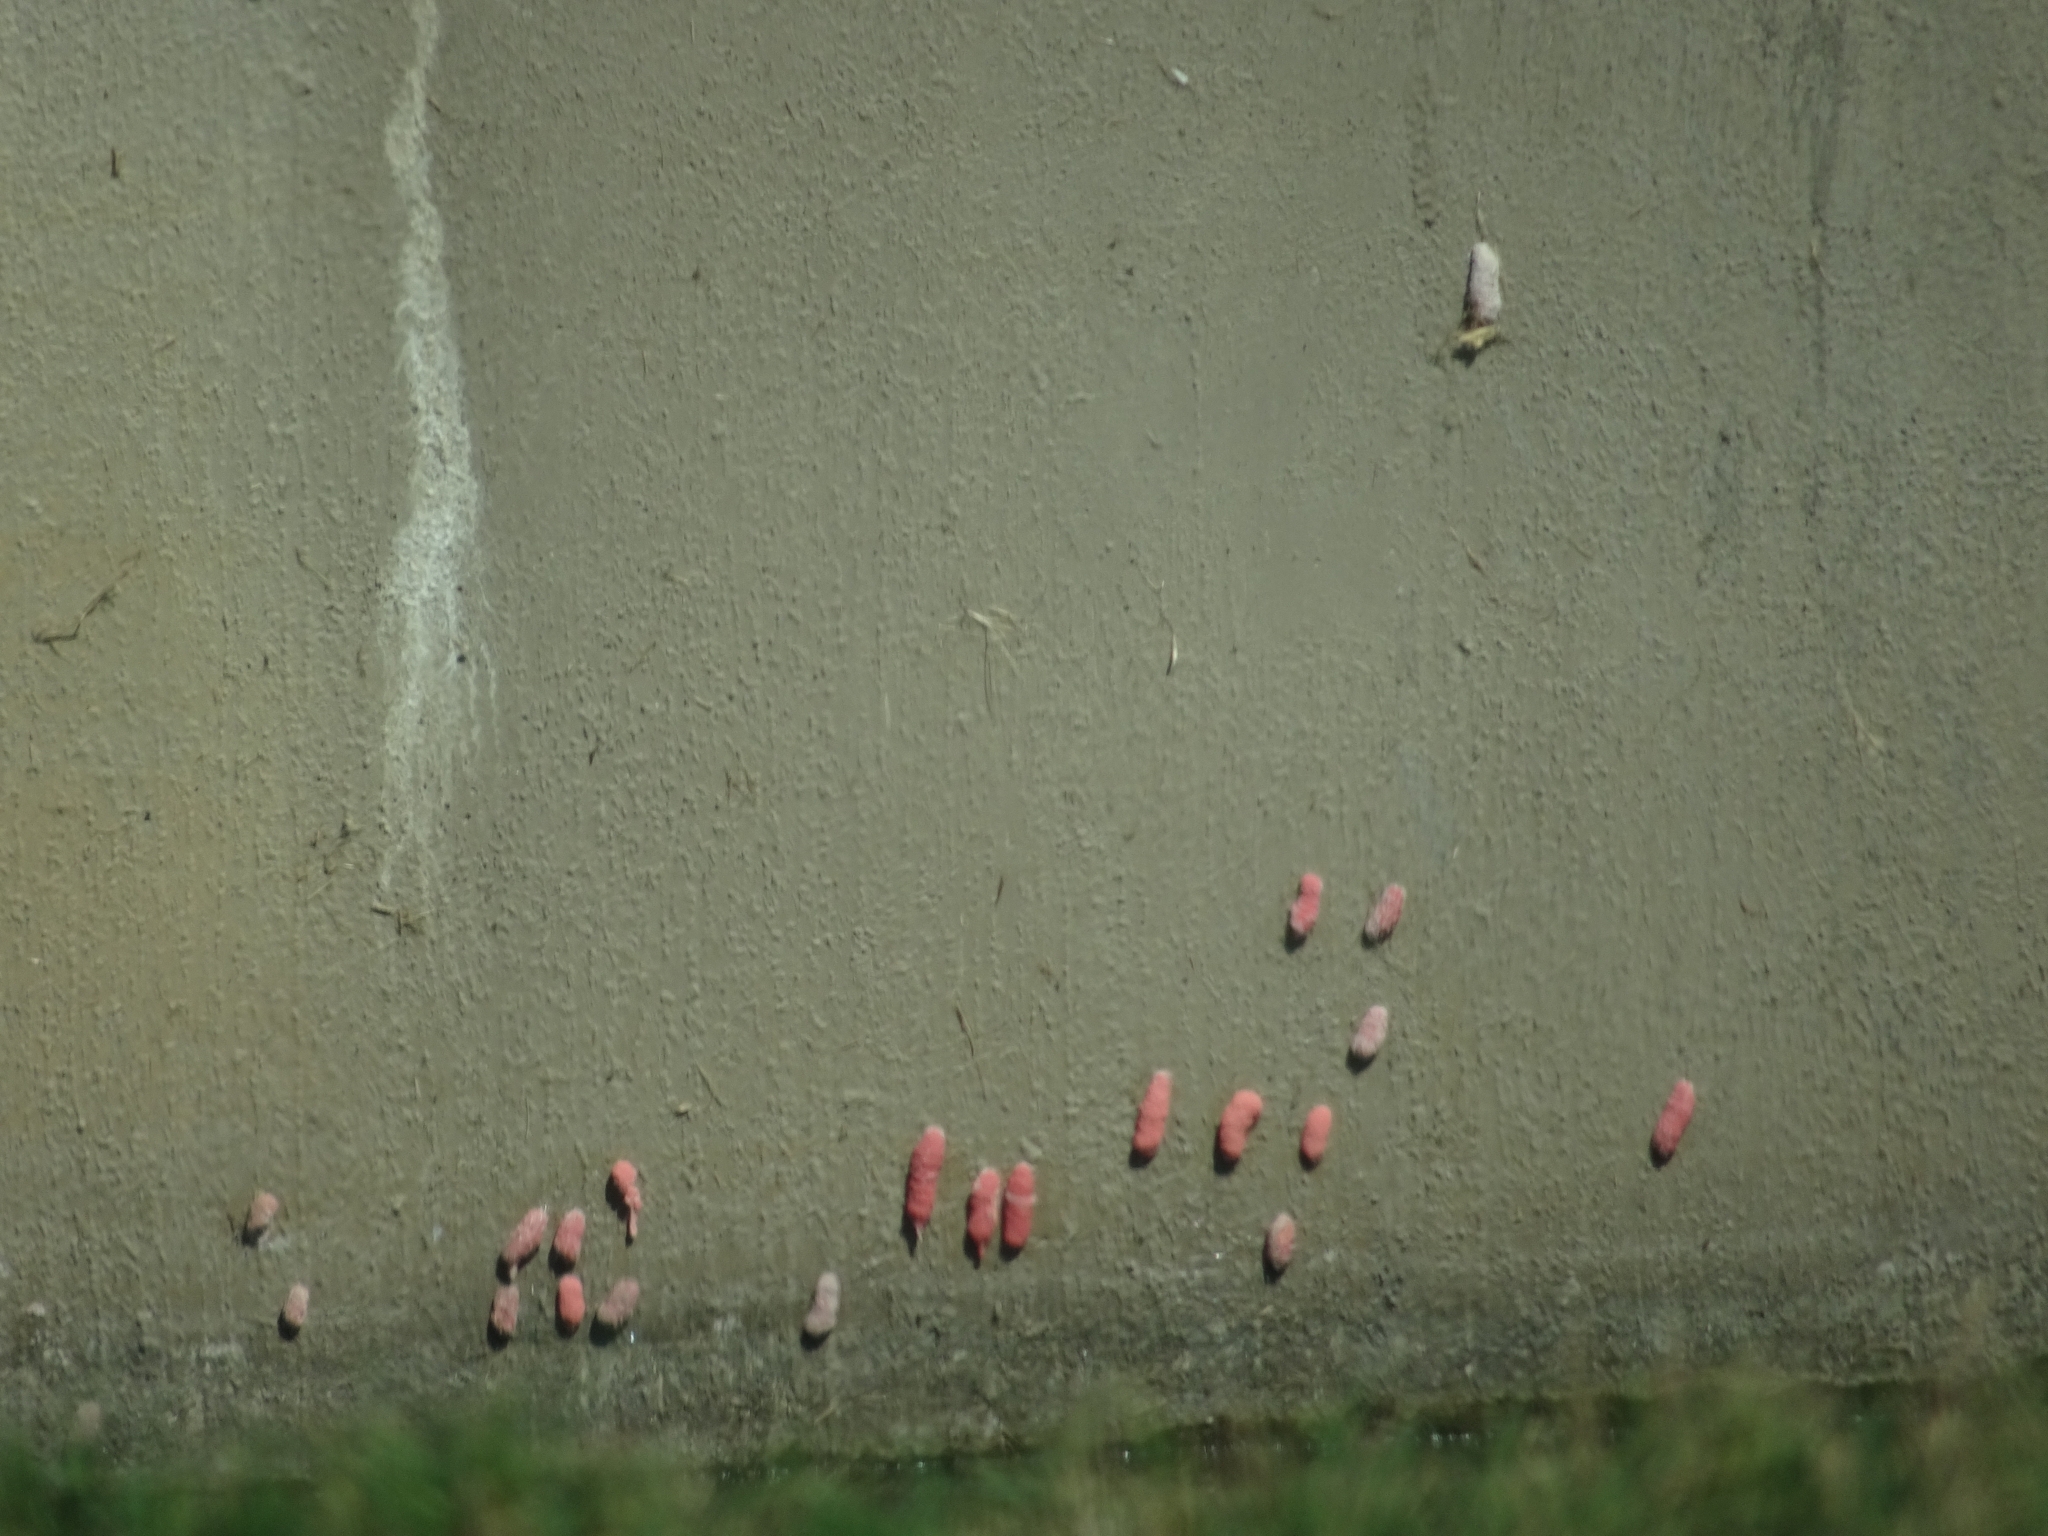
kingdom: Animalia
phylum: Mollusca
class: Gastropoda
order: Architaenioglossa
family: Ampullariidae
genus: Pomacea
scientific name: Pomacea maculata
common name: Giant applesnail
